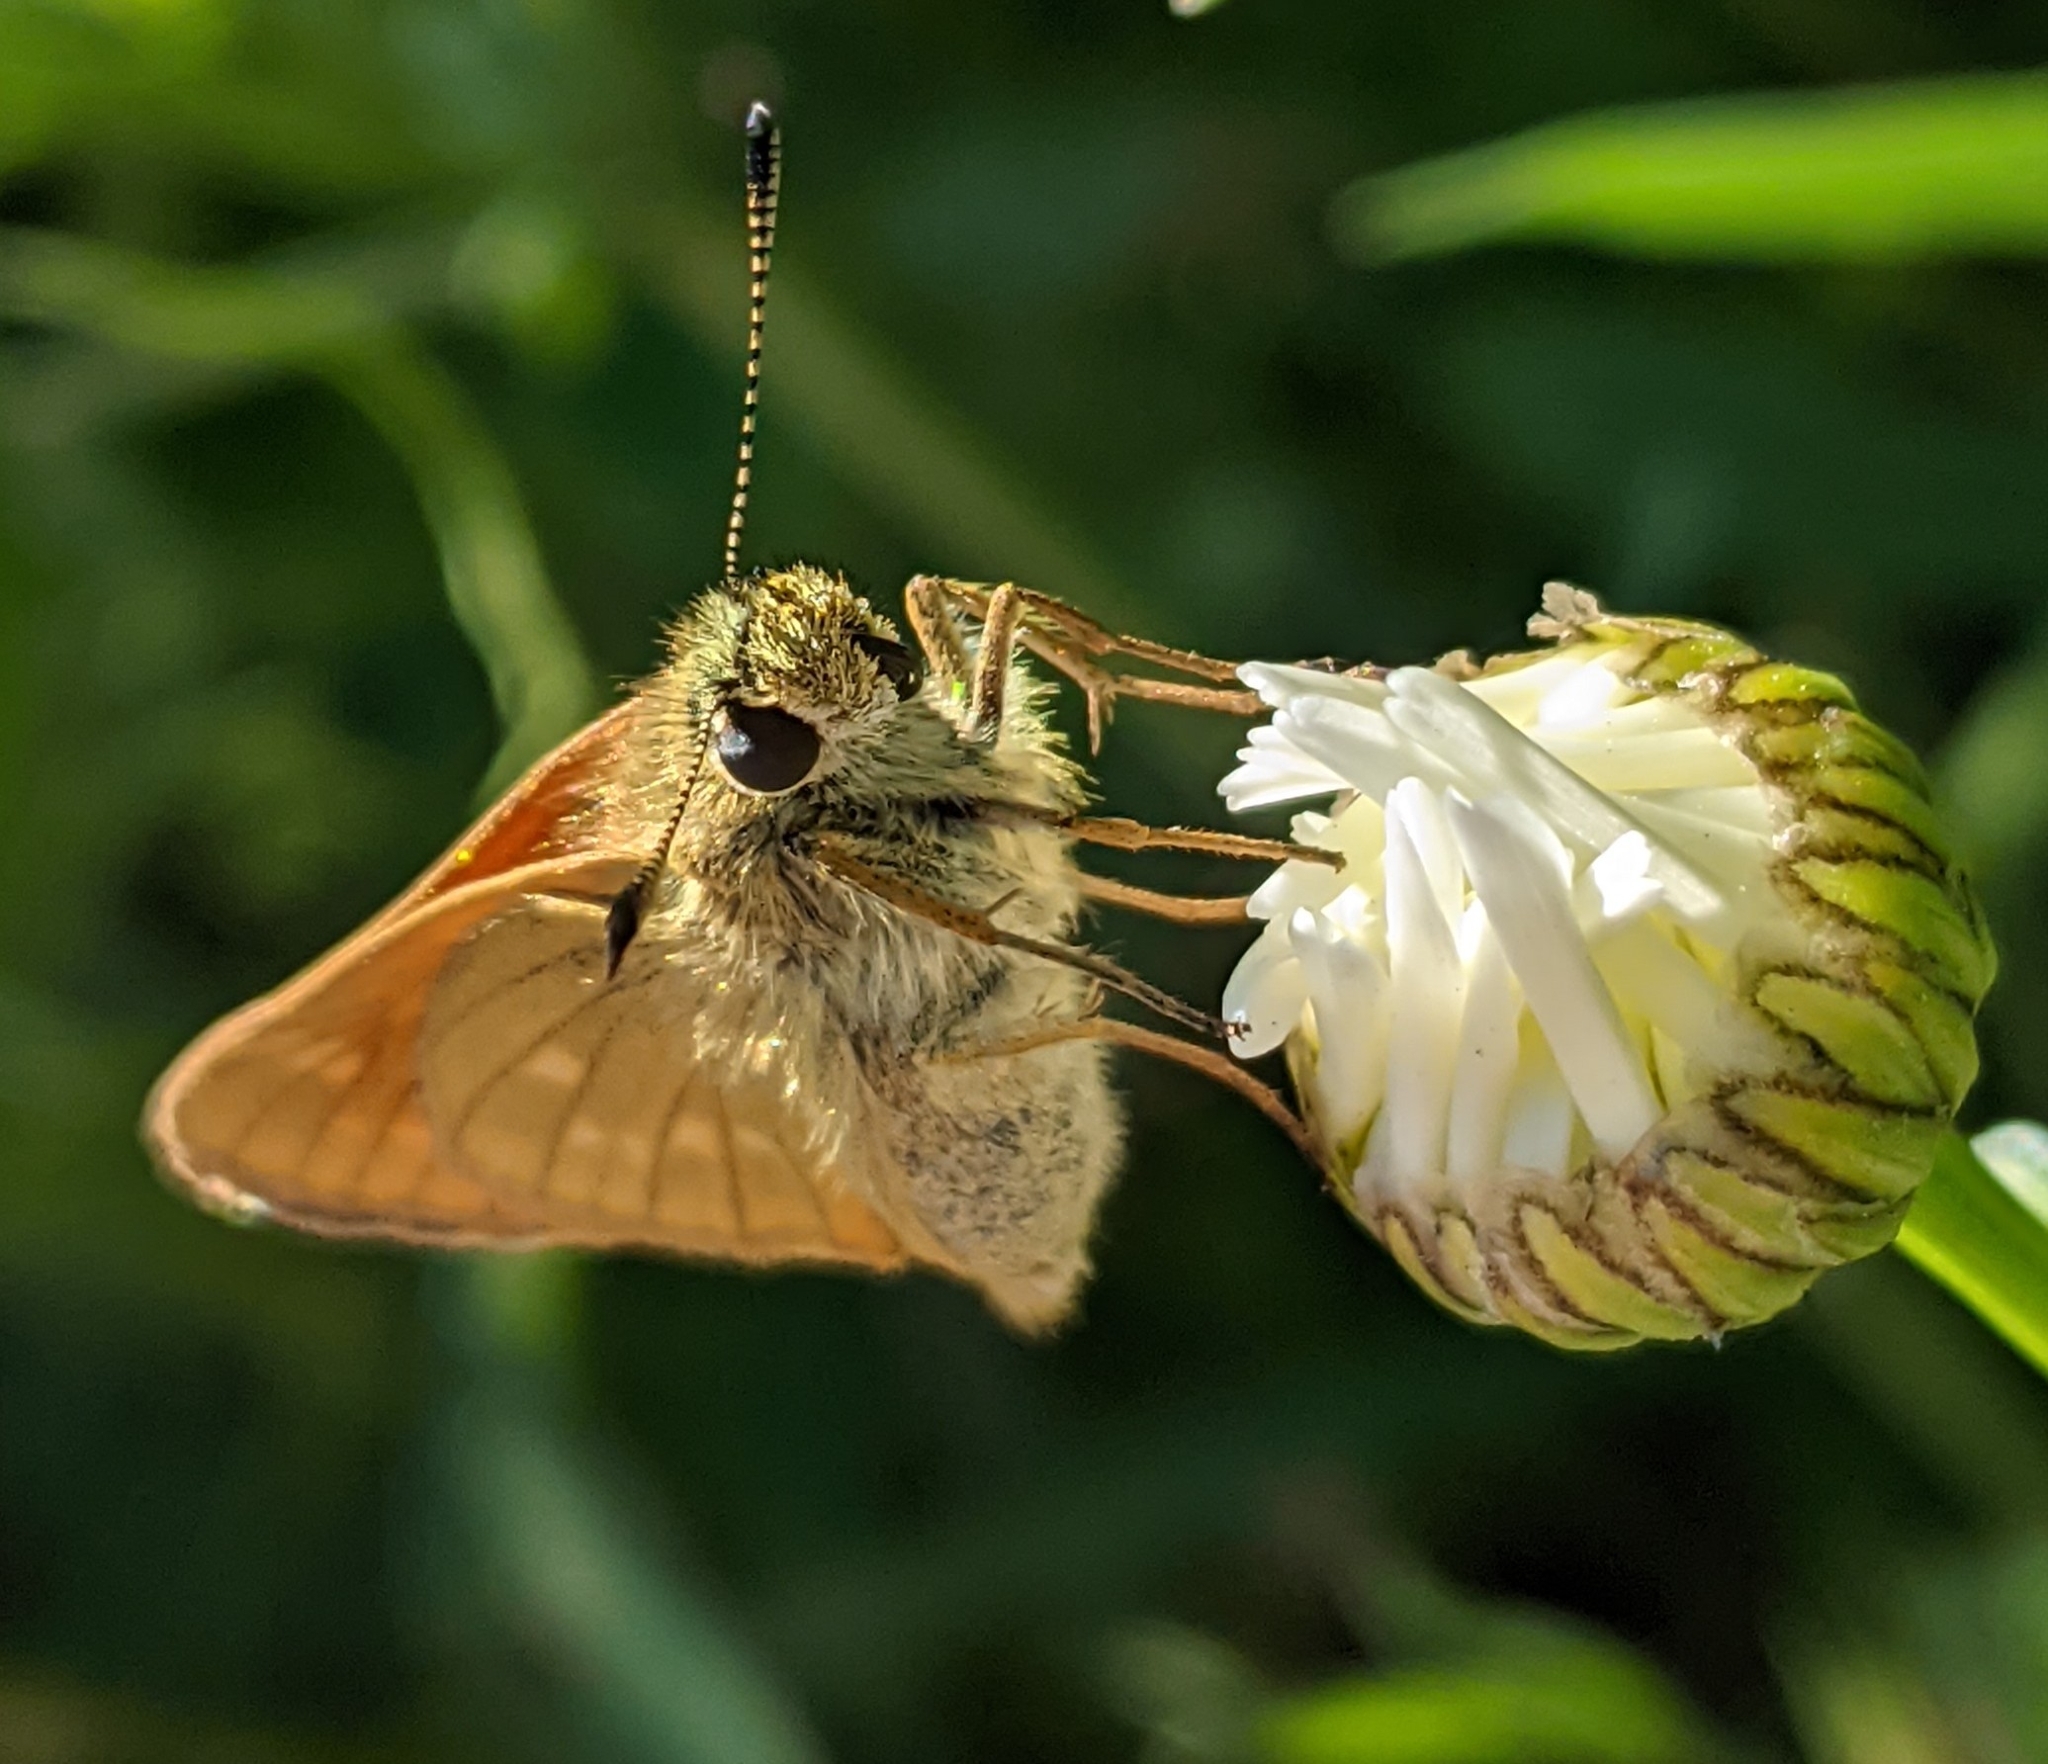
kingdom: Animalia
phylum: Arthropoda
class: Insecta
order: Lepidoptera
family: Hesperiidae
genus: Ochlodes
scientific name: Ochlodes venata
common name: Large skipper
